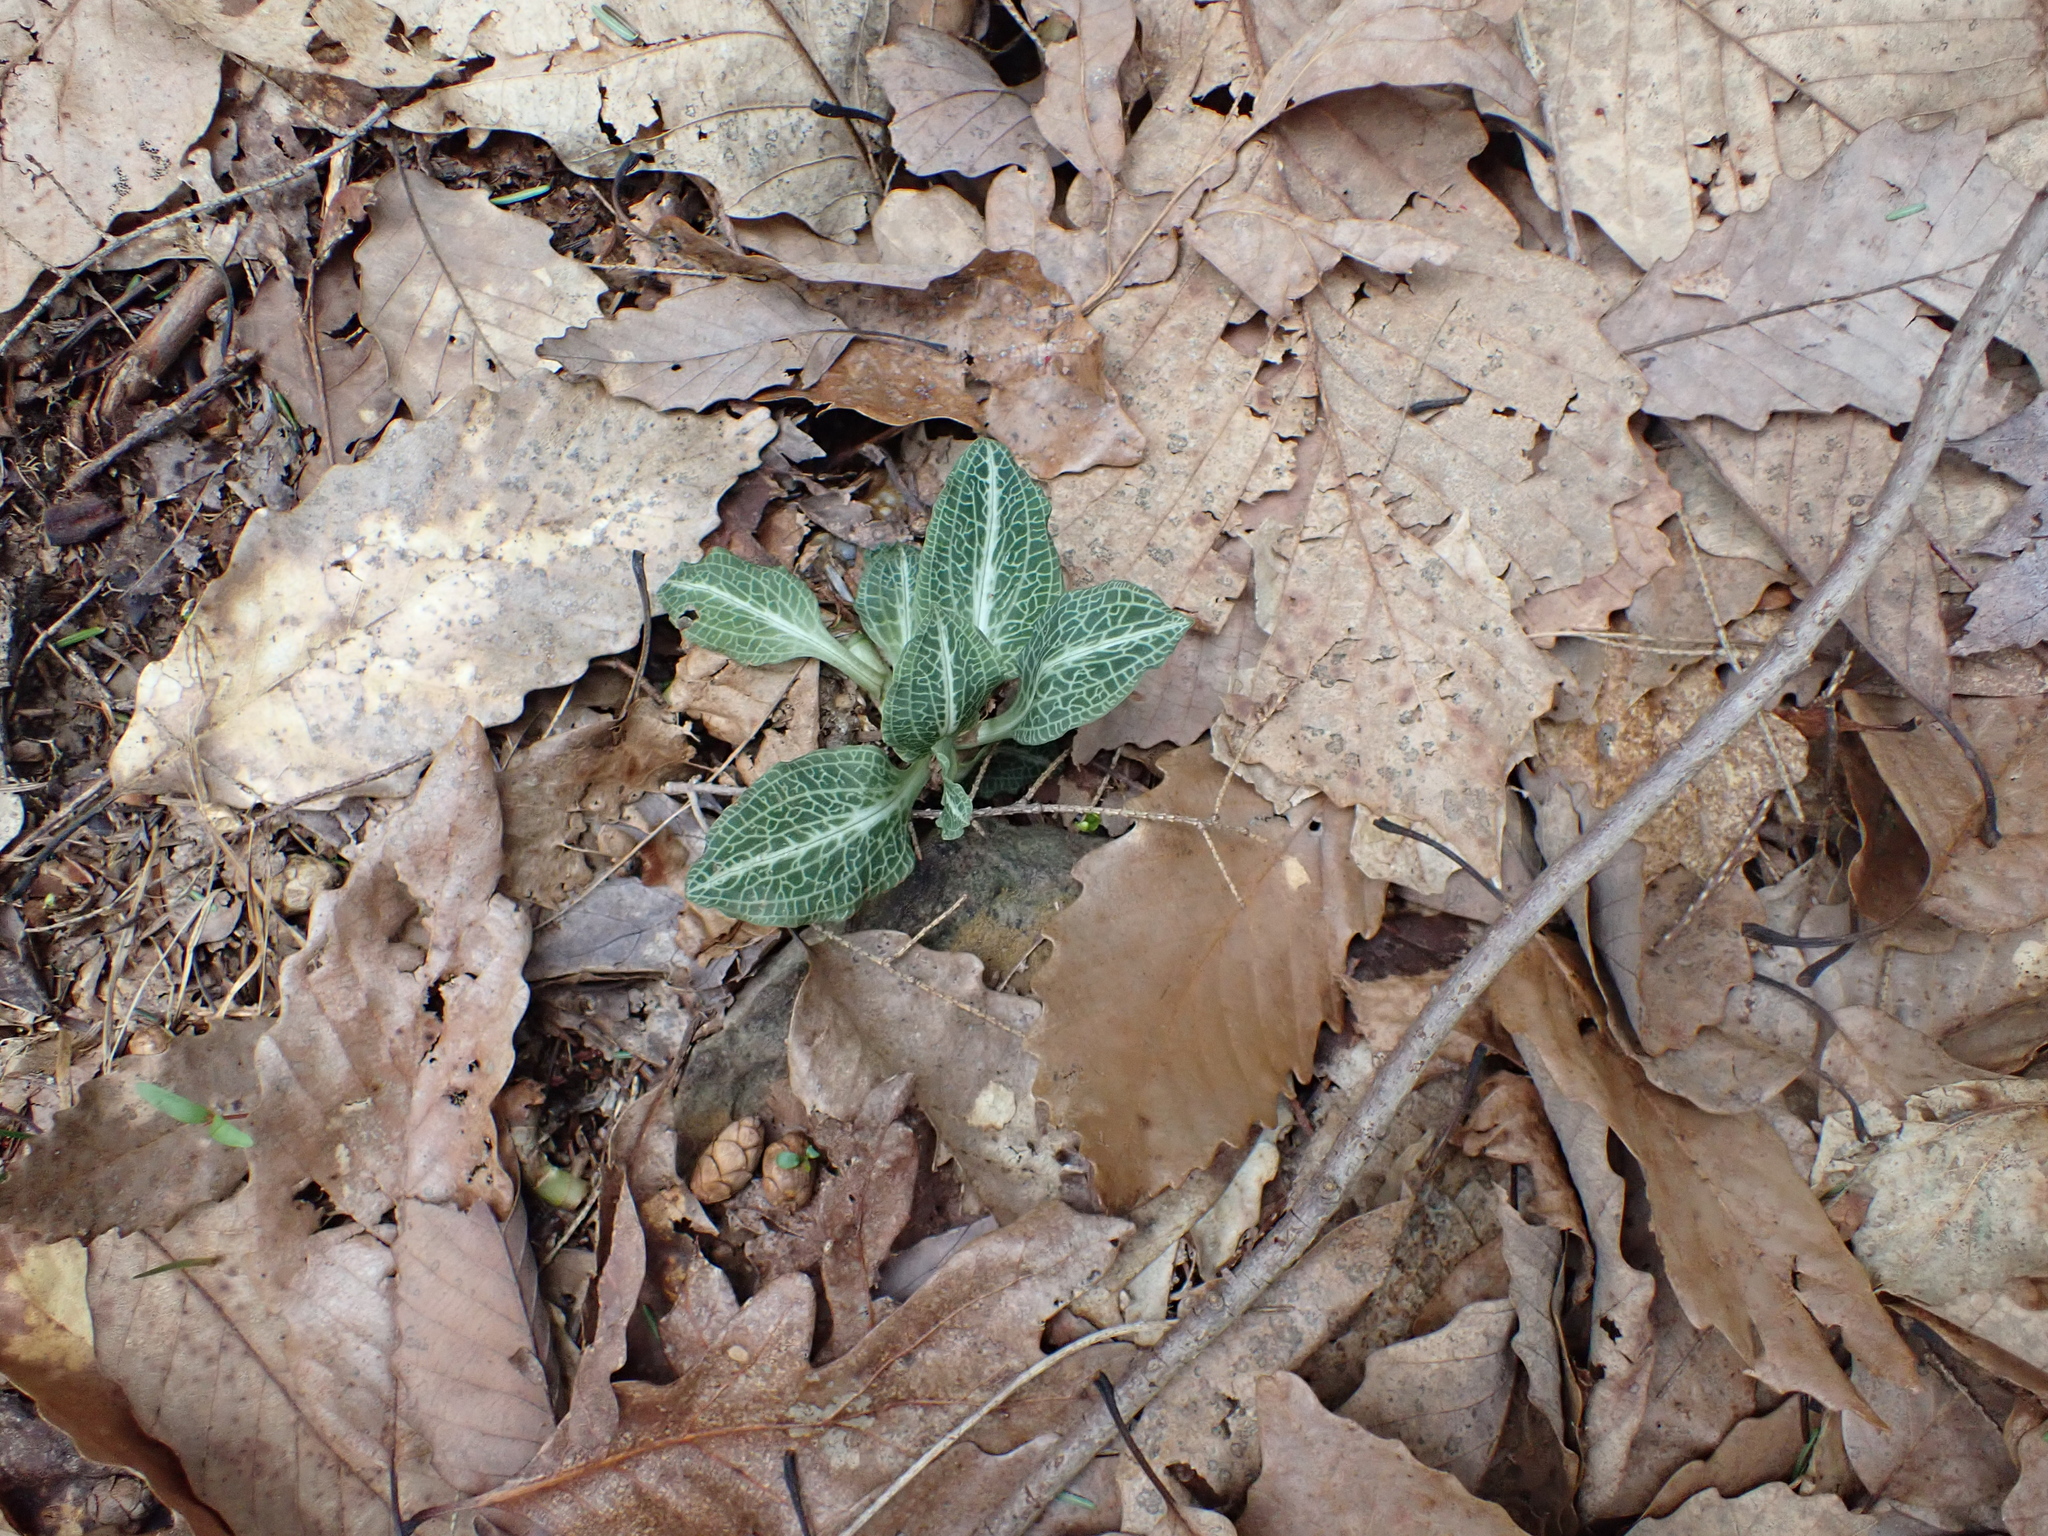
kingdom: Plantae
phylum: Tracheophyta
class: Liliopsida
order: Asparagales
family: Orchidaceae
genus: Goodyera
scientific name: Goodyera pubescens
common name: Downy rattlesnake-plantain
